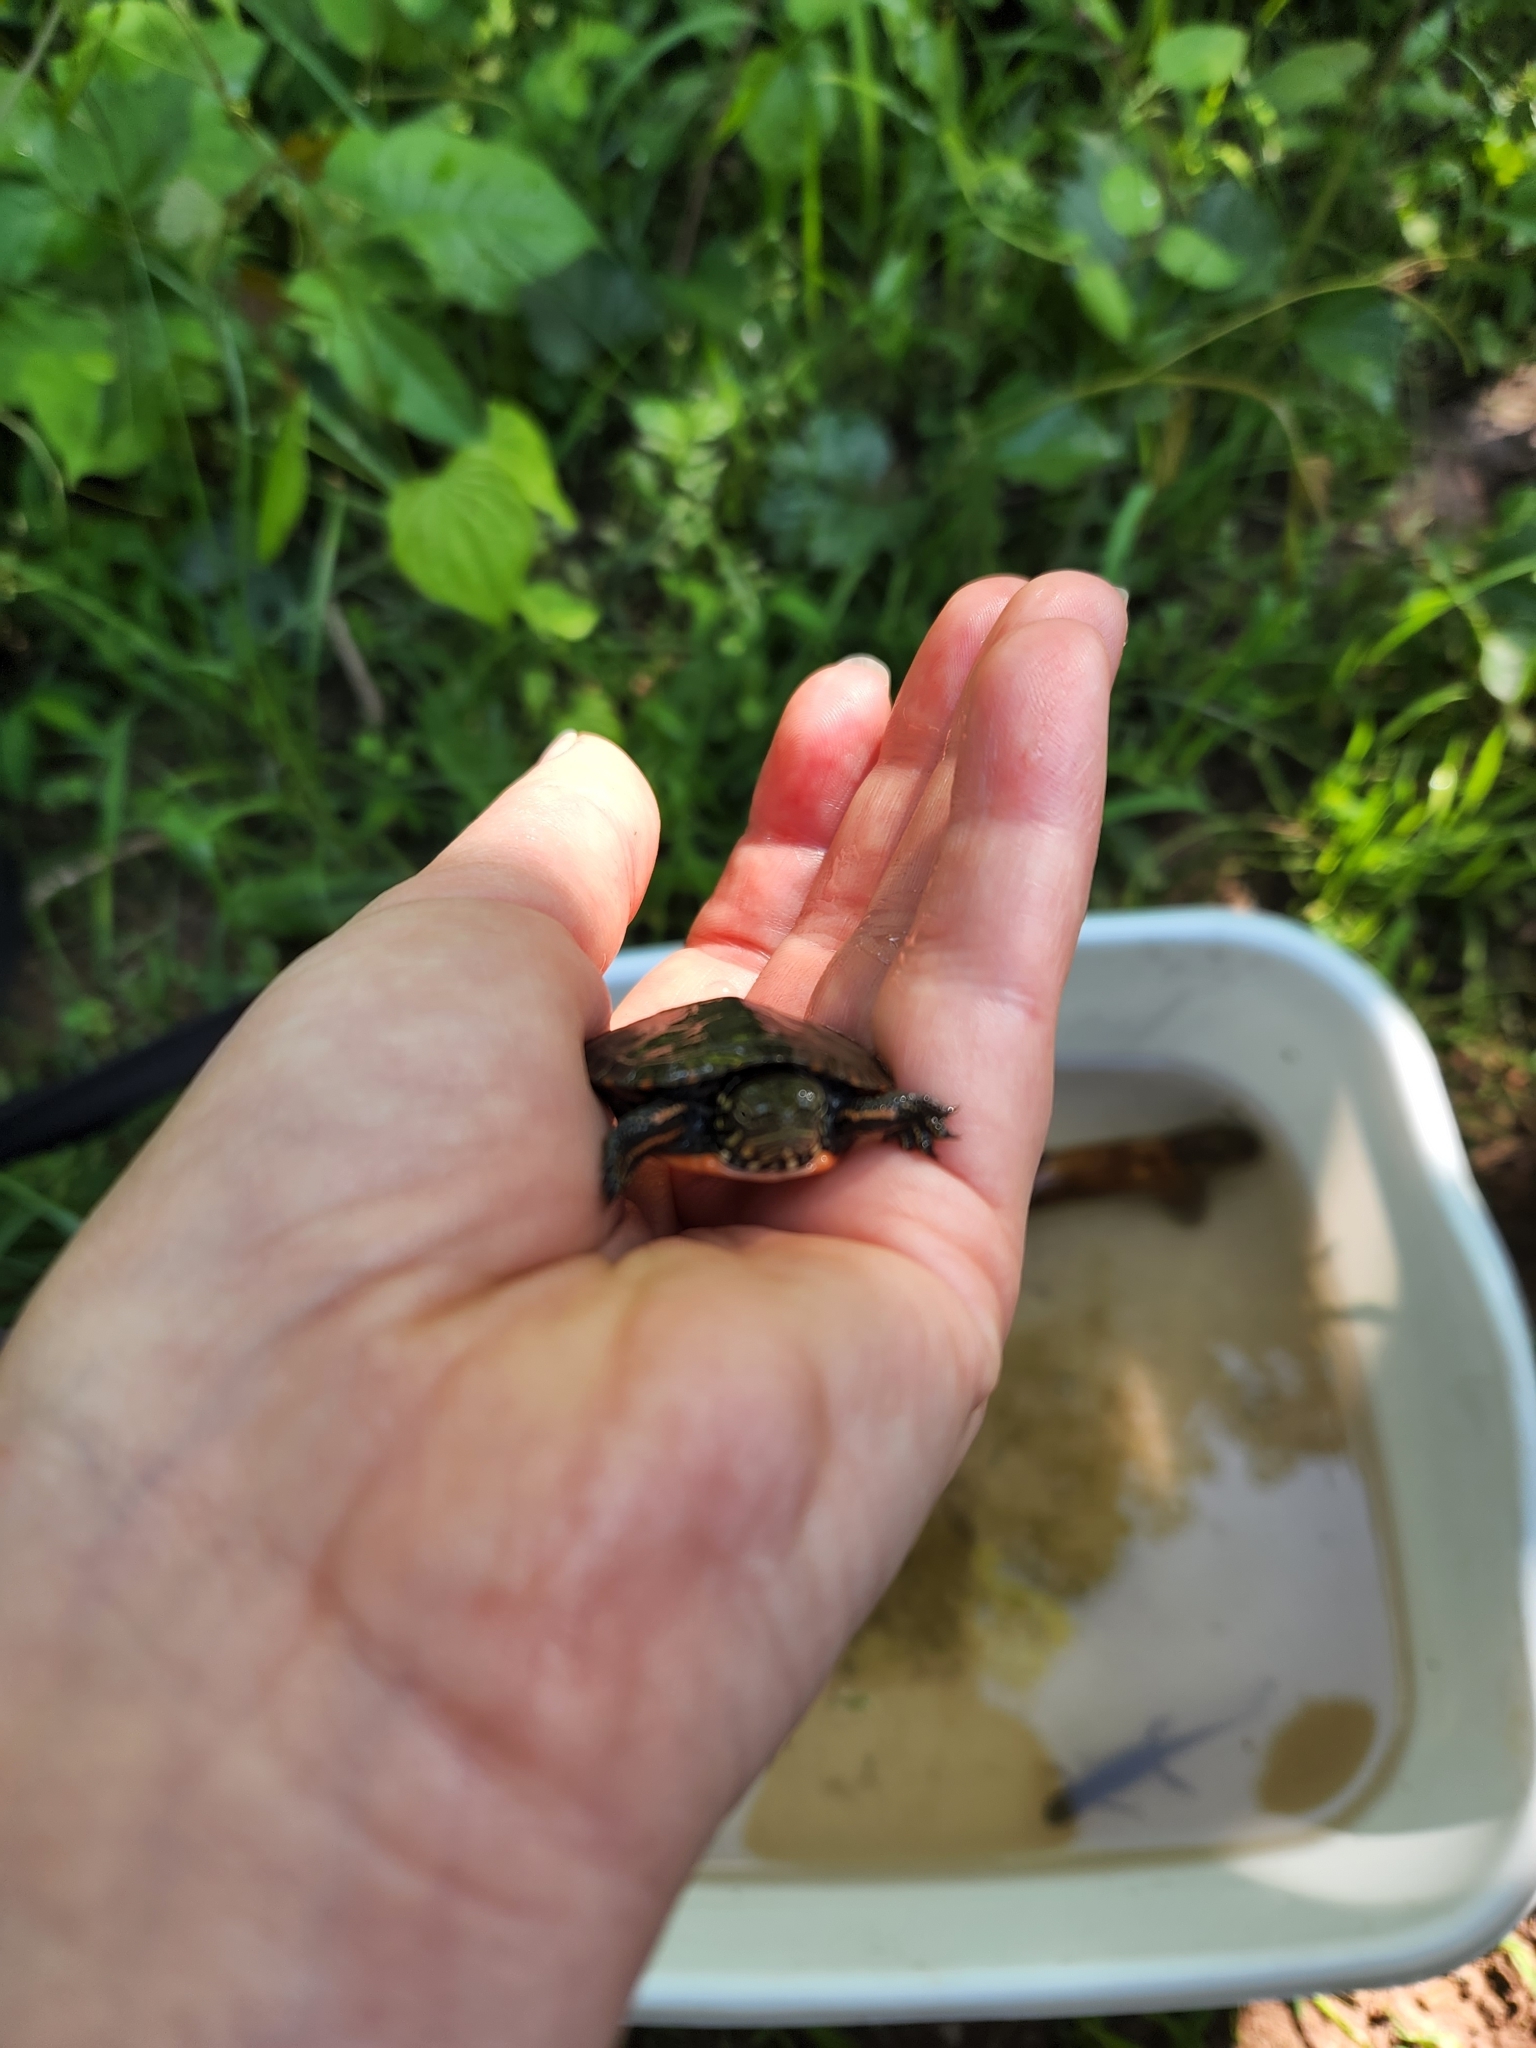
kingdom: Animalia
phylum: Chordata
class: Testudines
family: Emydidae
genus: Chrysemys
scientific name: Chrysemys picta
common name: Painted turtle
